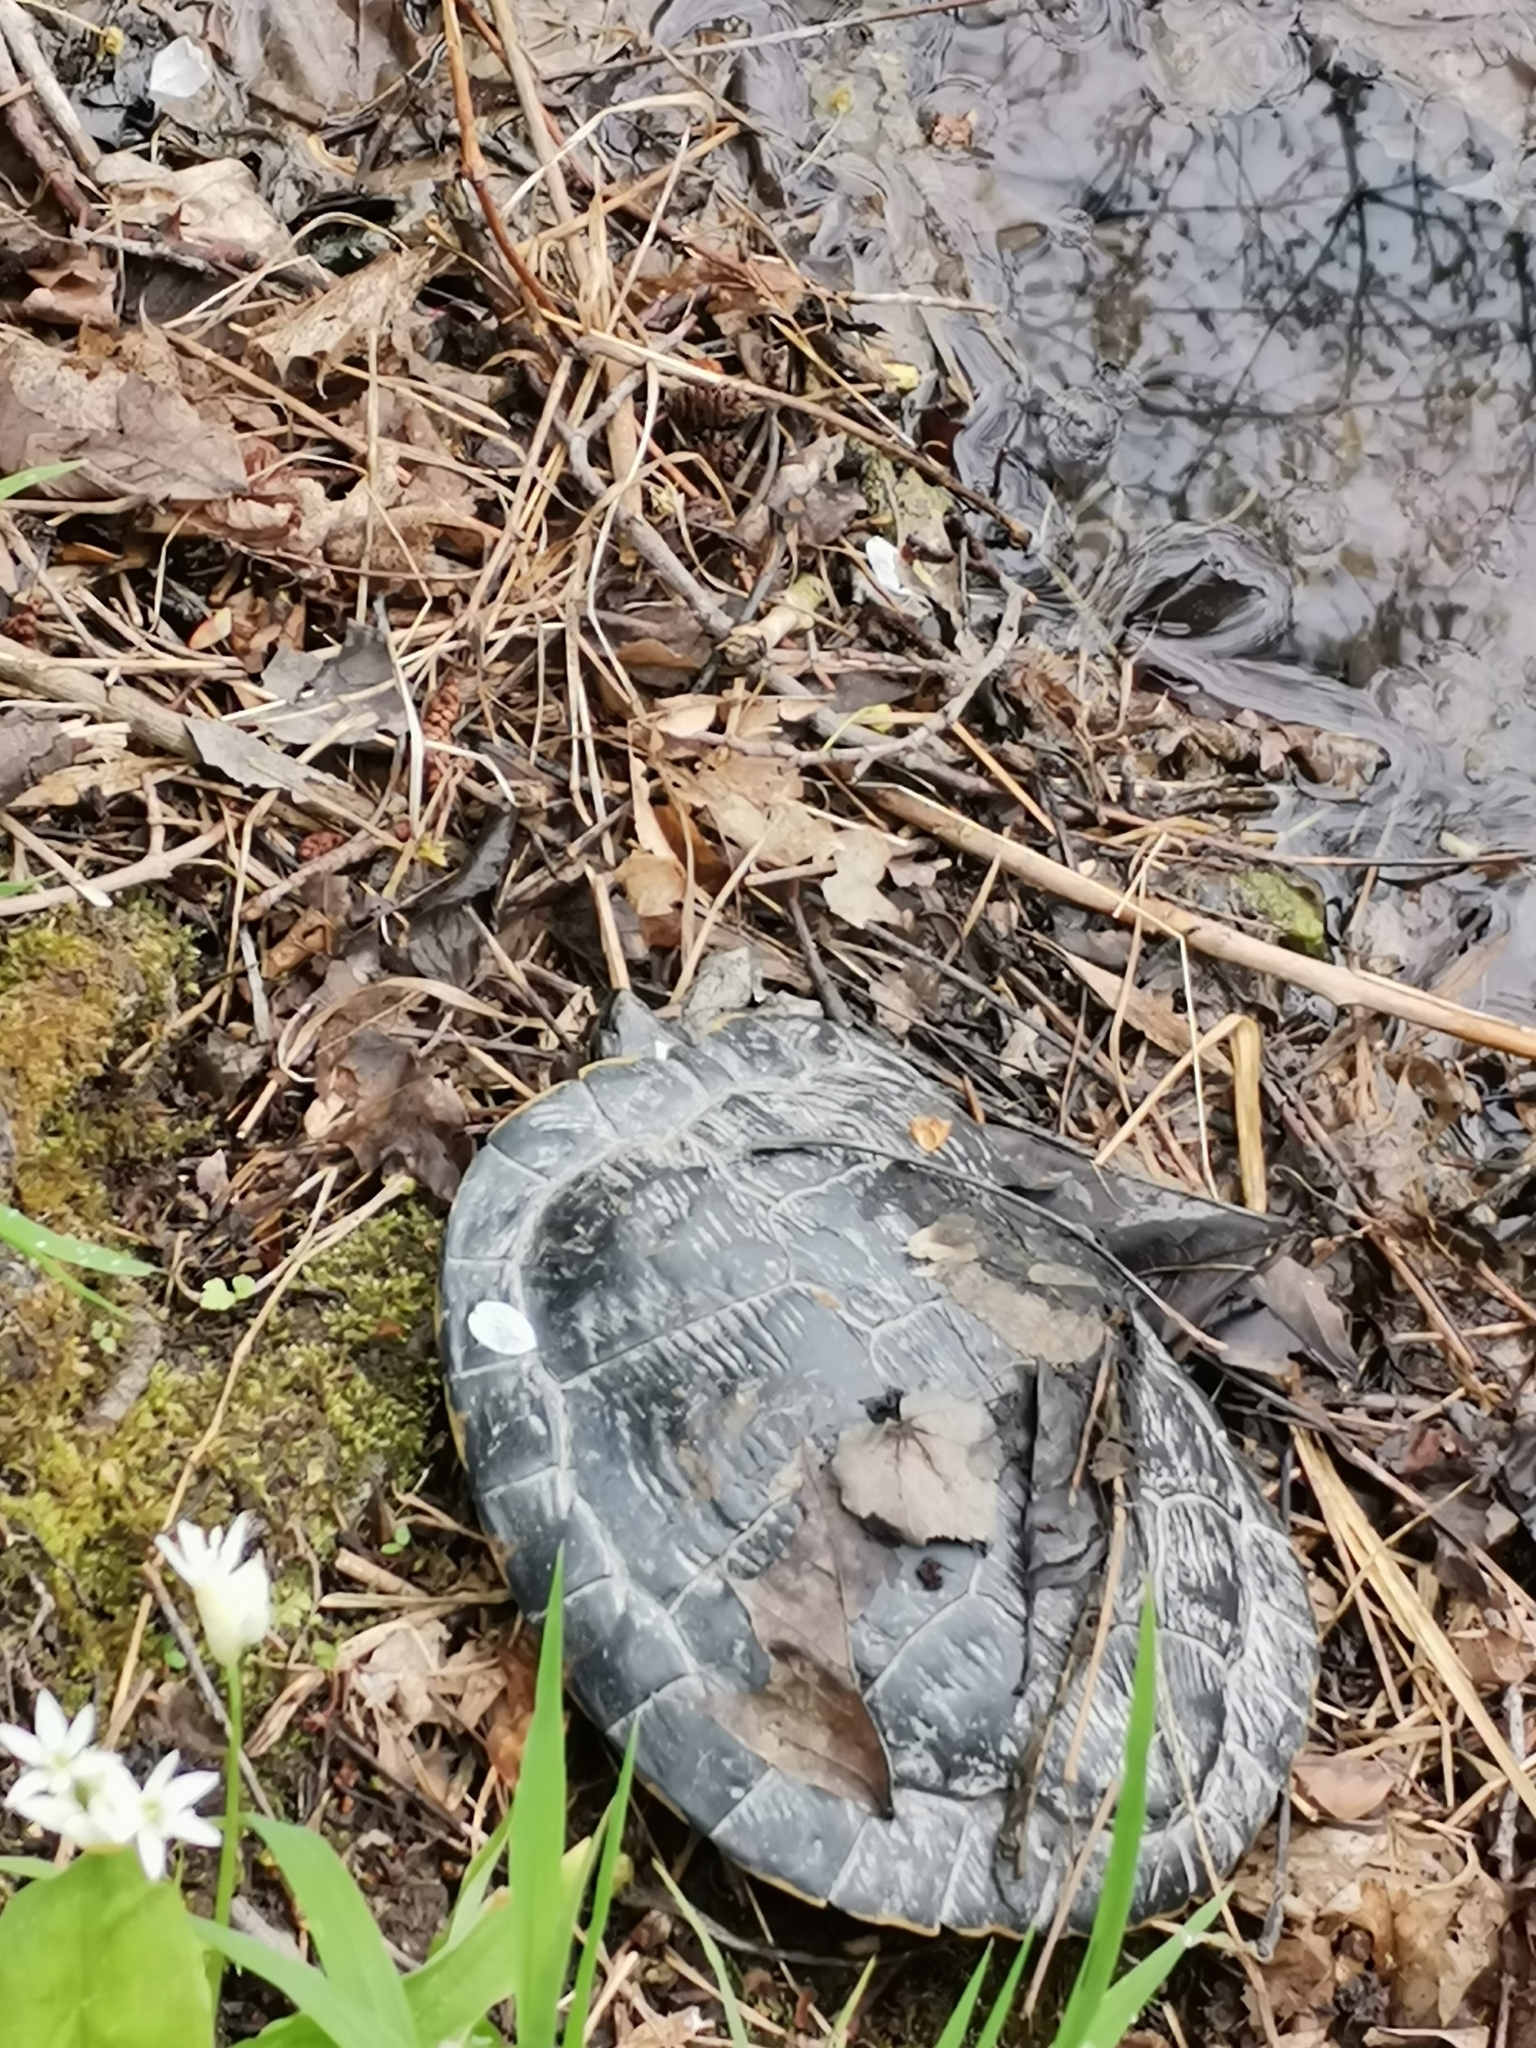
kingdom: Animalia
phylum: Chordata
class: Testudines
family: Emydidae
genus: Trachemys
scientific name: Trachemys scripta
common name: Slider
